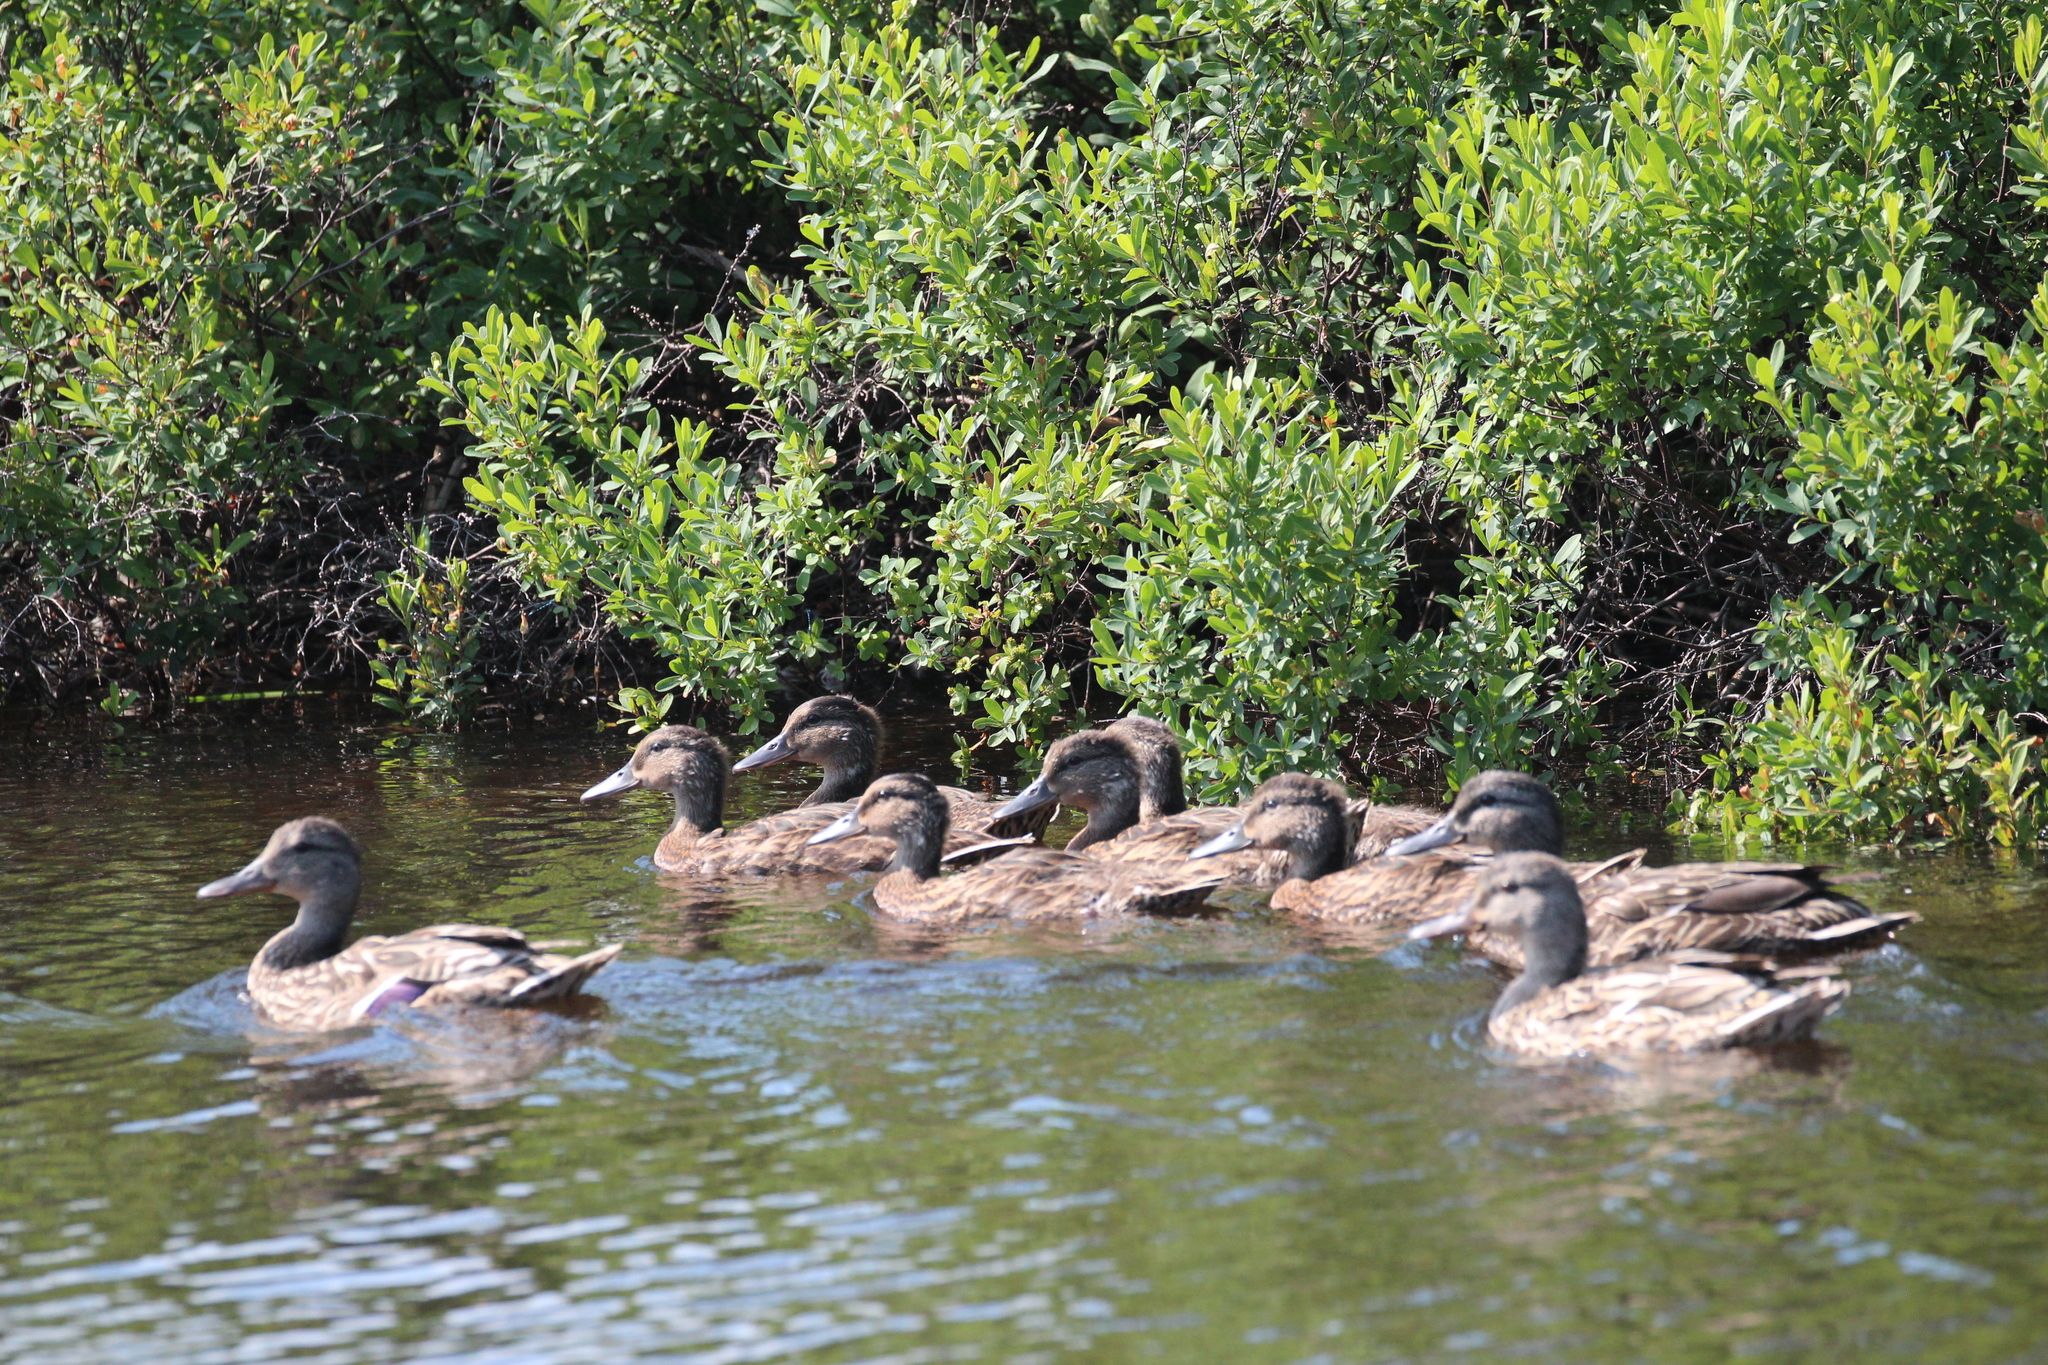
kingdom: Animalia
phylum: Chordata
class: Aves
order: Anseriformes
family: Anatidae
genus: Anas
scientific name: Anas platyrhynchos
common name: Mallard
